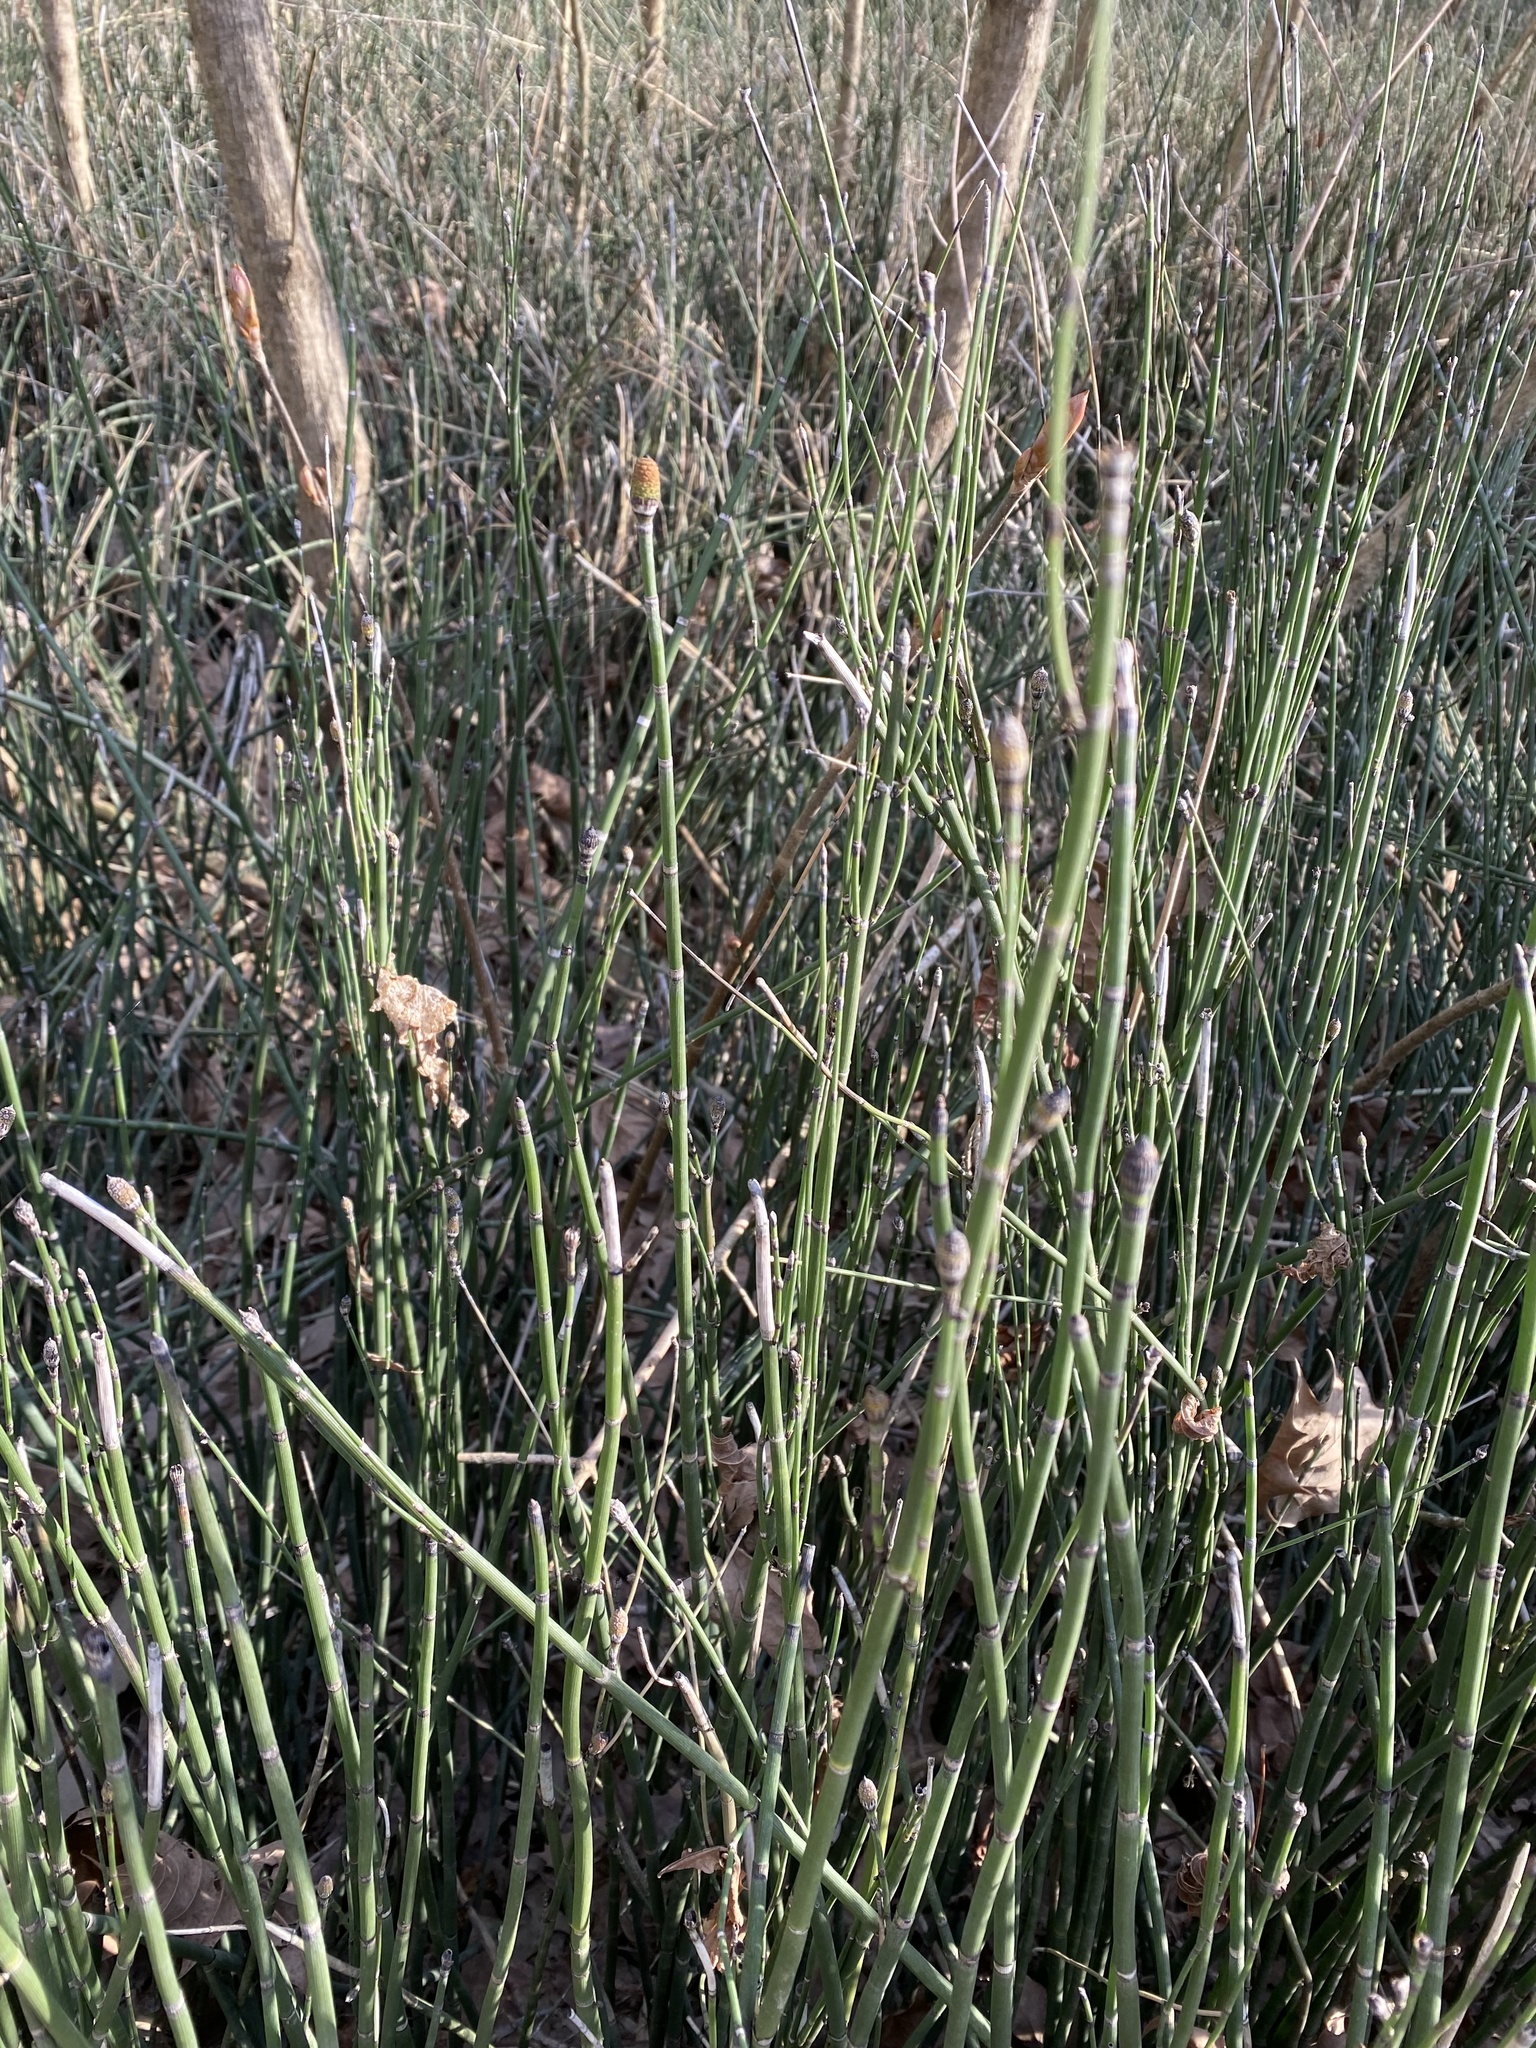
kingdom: Plantae
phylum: Tracheophyta
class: Polypodiopsida
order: Equisetales
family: Equisetaceae
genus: Equisetum
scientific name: Equisetum hyemale
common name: Rough horsetail
